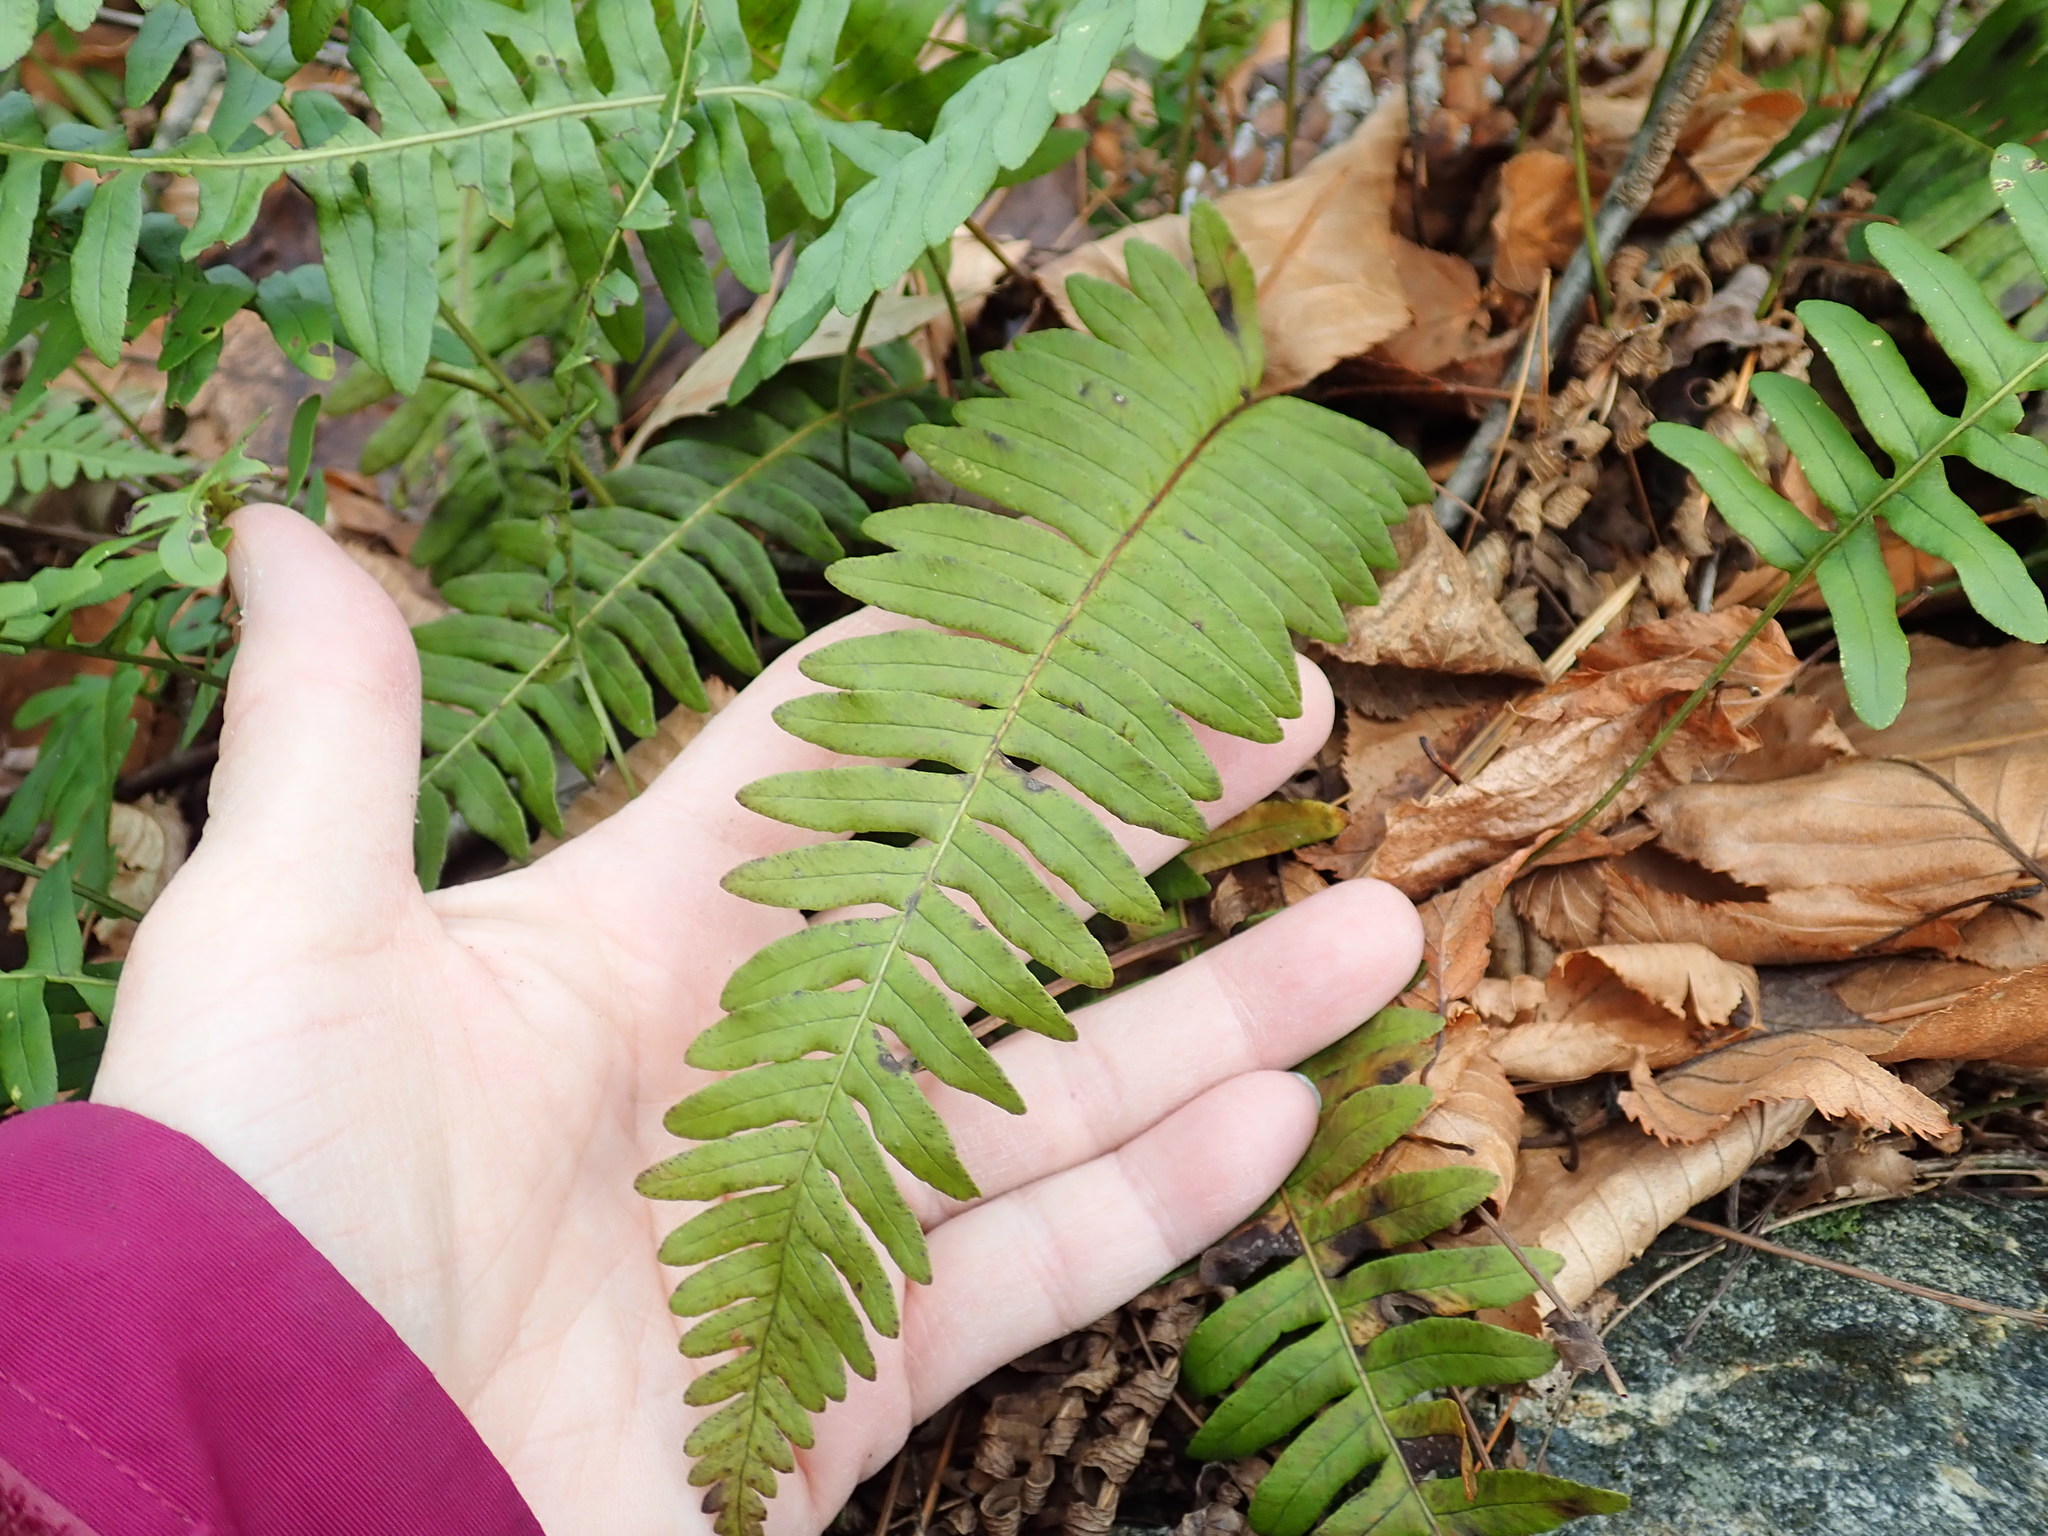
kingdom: Plantae
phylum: Tracheophyta
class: Polypodiopsida
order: Polypodiales
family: Polypodiaceae
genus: Polypodium
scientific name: Polypodium
